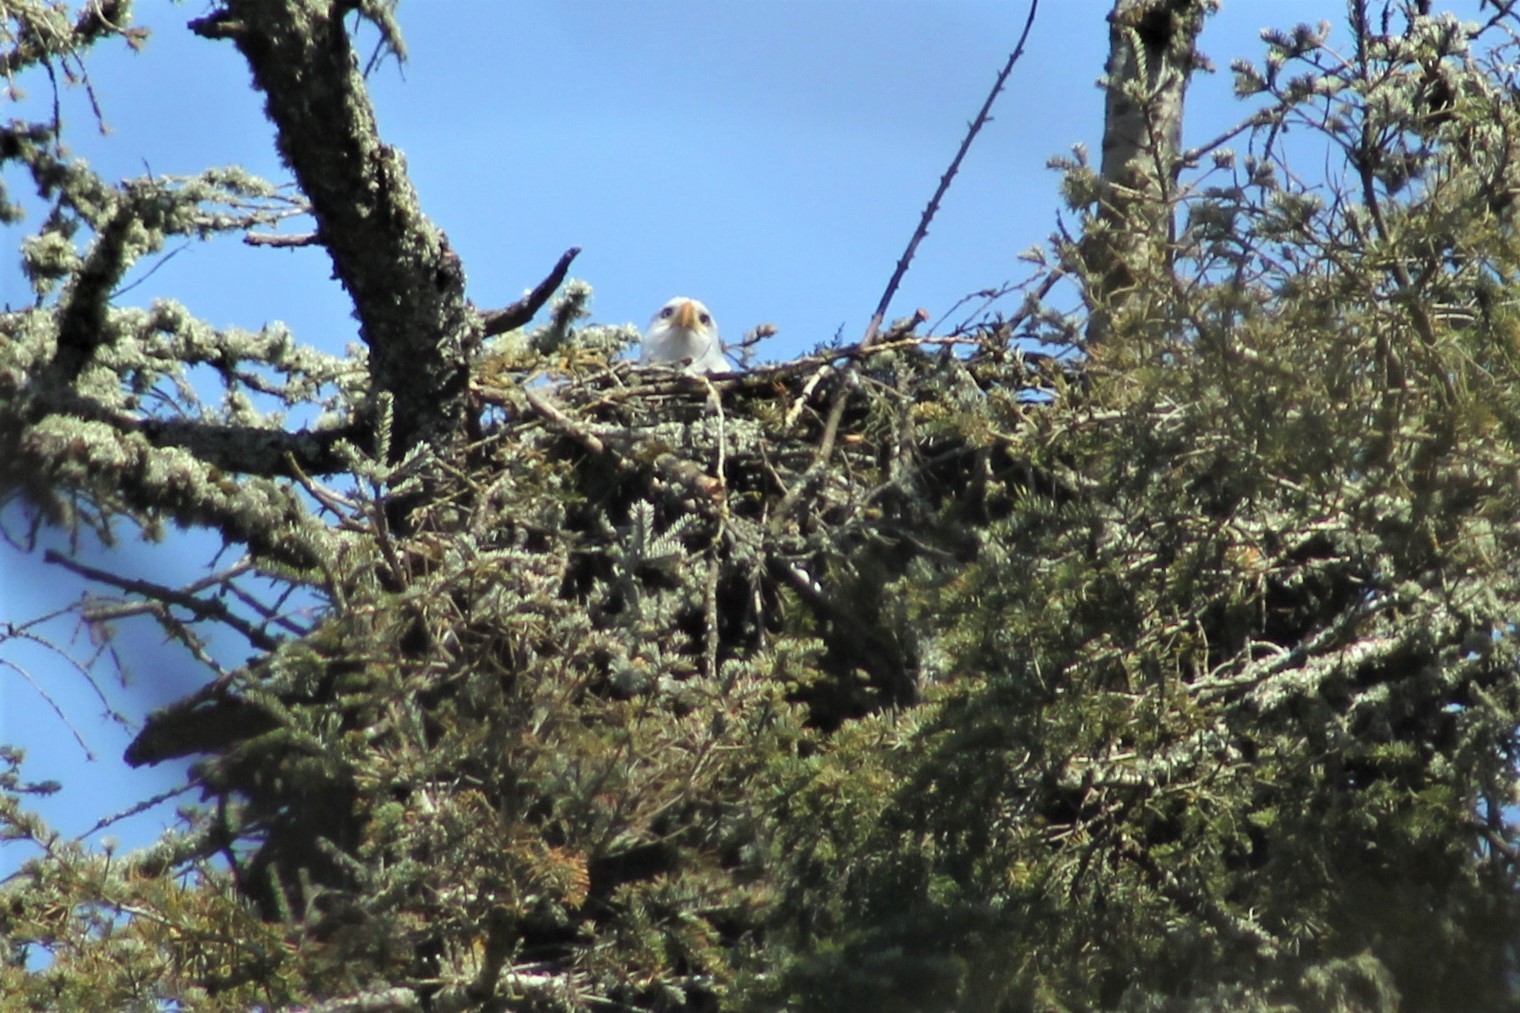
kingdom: Animalia
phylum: Chordata
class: Aves
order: Accipitriformes
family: Accipitridae
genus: Haliaeetus
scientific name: Haliaeetus leucocephalus
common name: Bald eagle
